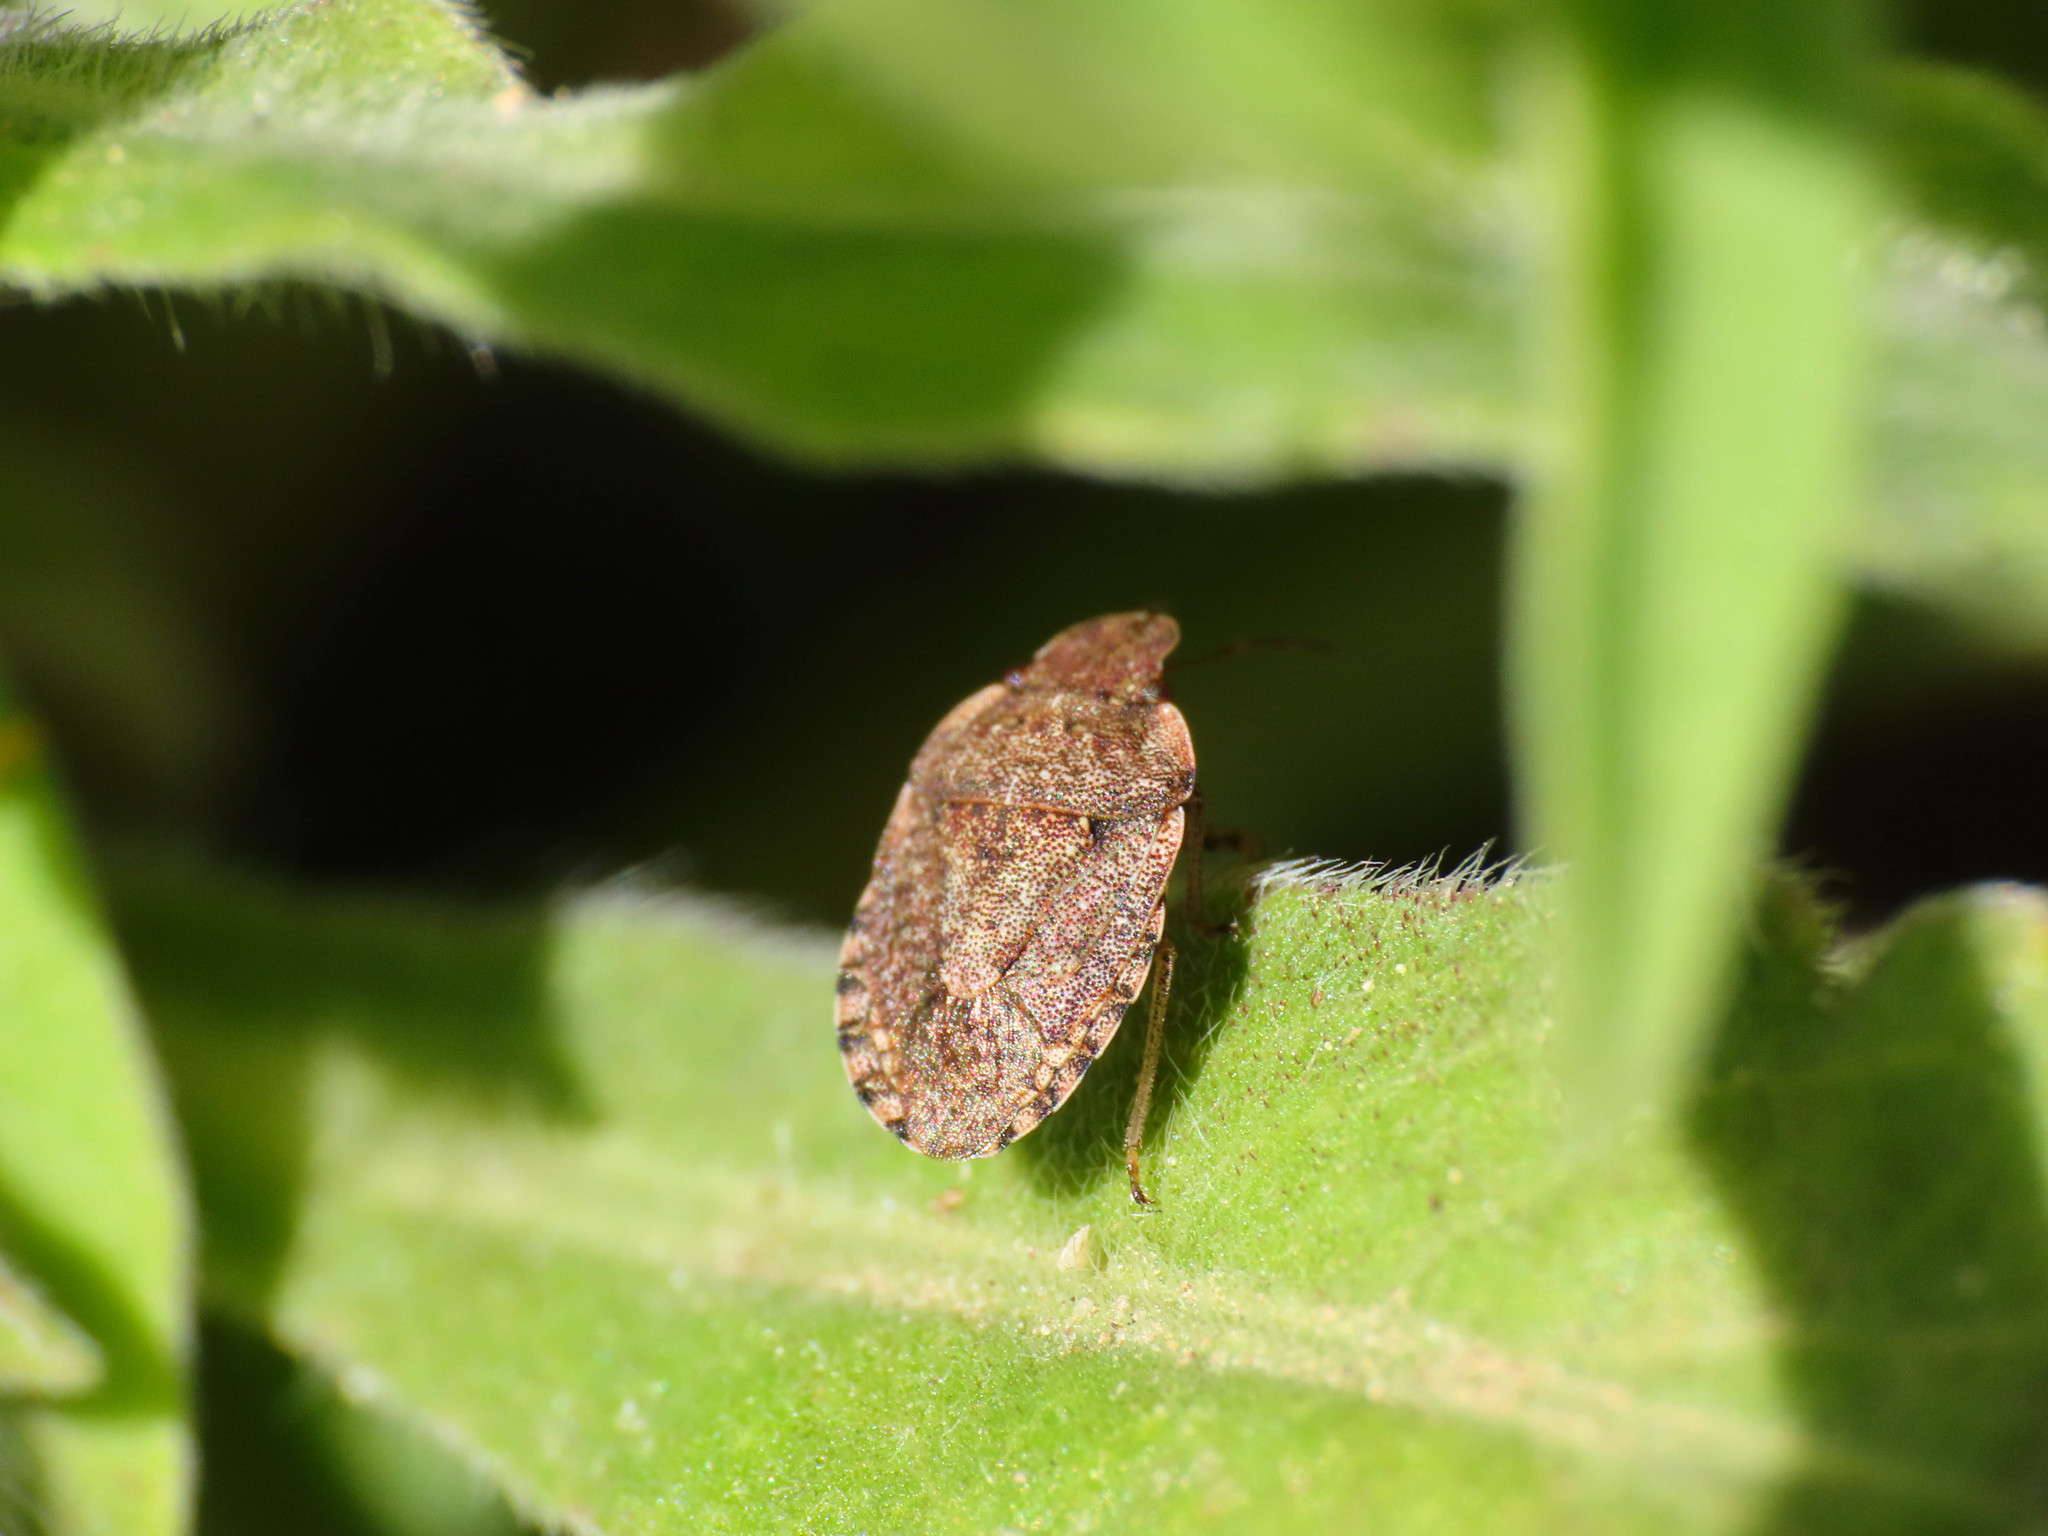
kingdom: Animalia
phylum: Arthropoda
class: Insecta
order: Hemiptera
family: Pentatomidae
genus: Sciocoris
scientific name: Sciocoris sideritidis
